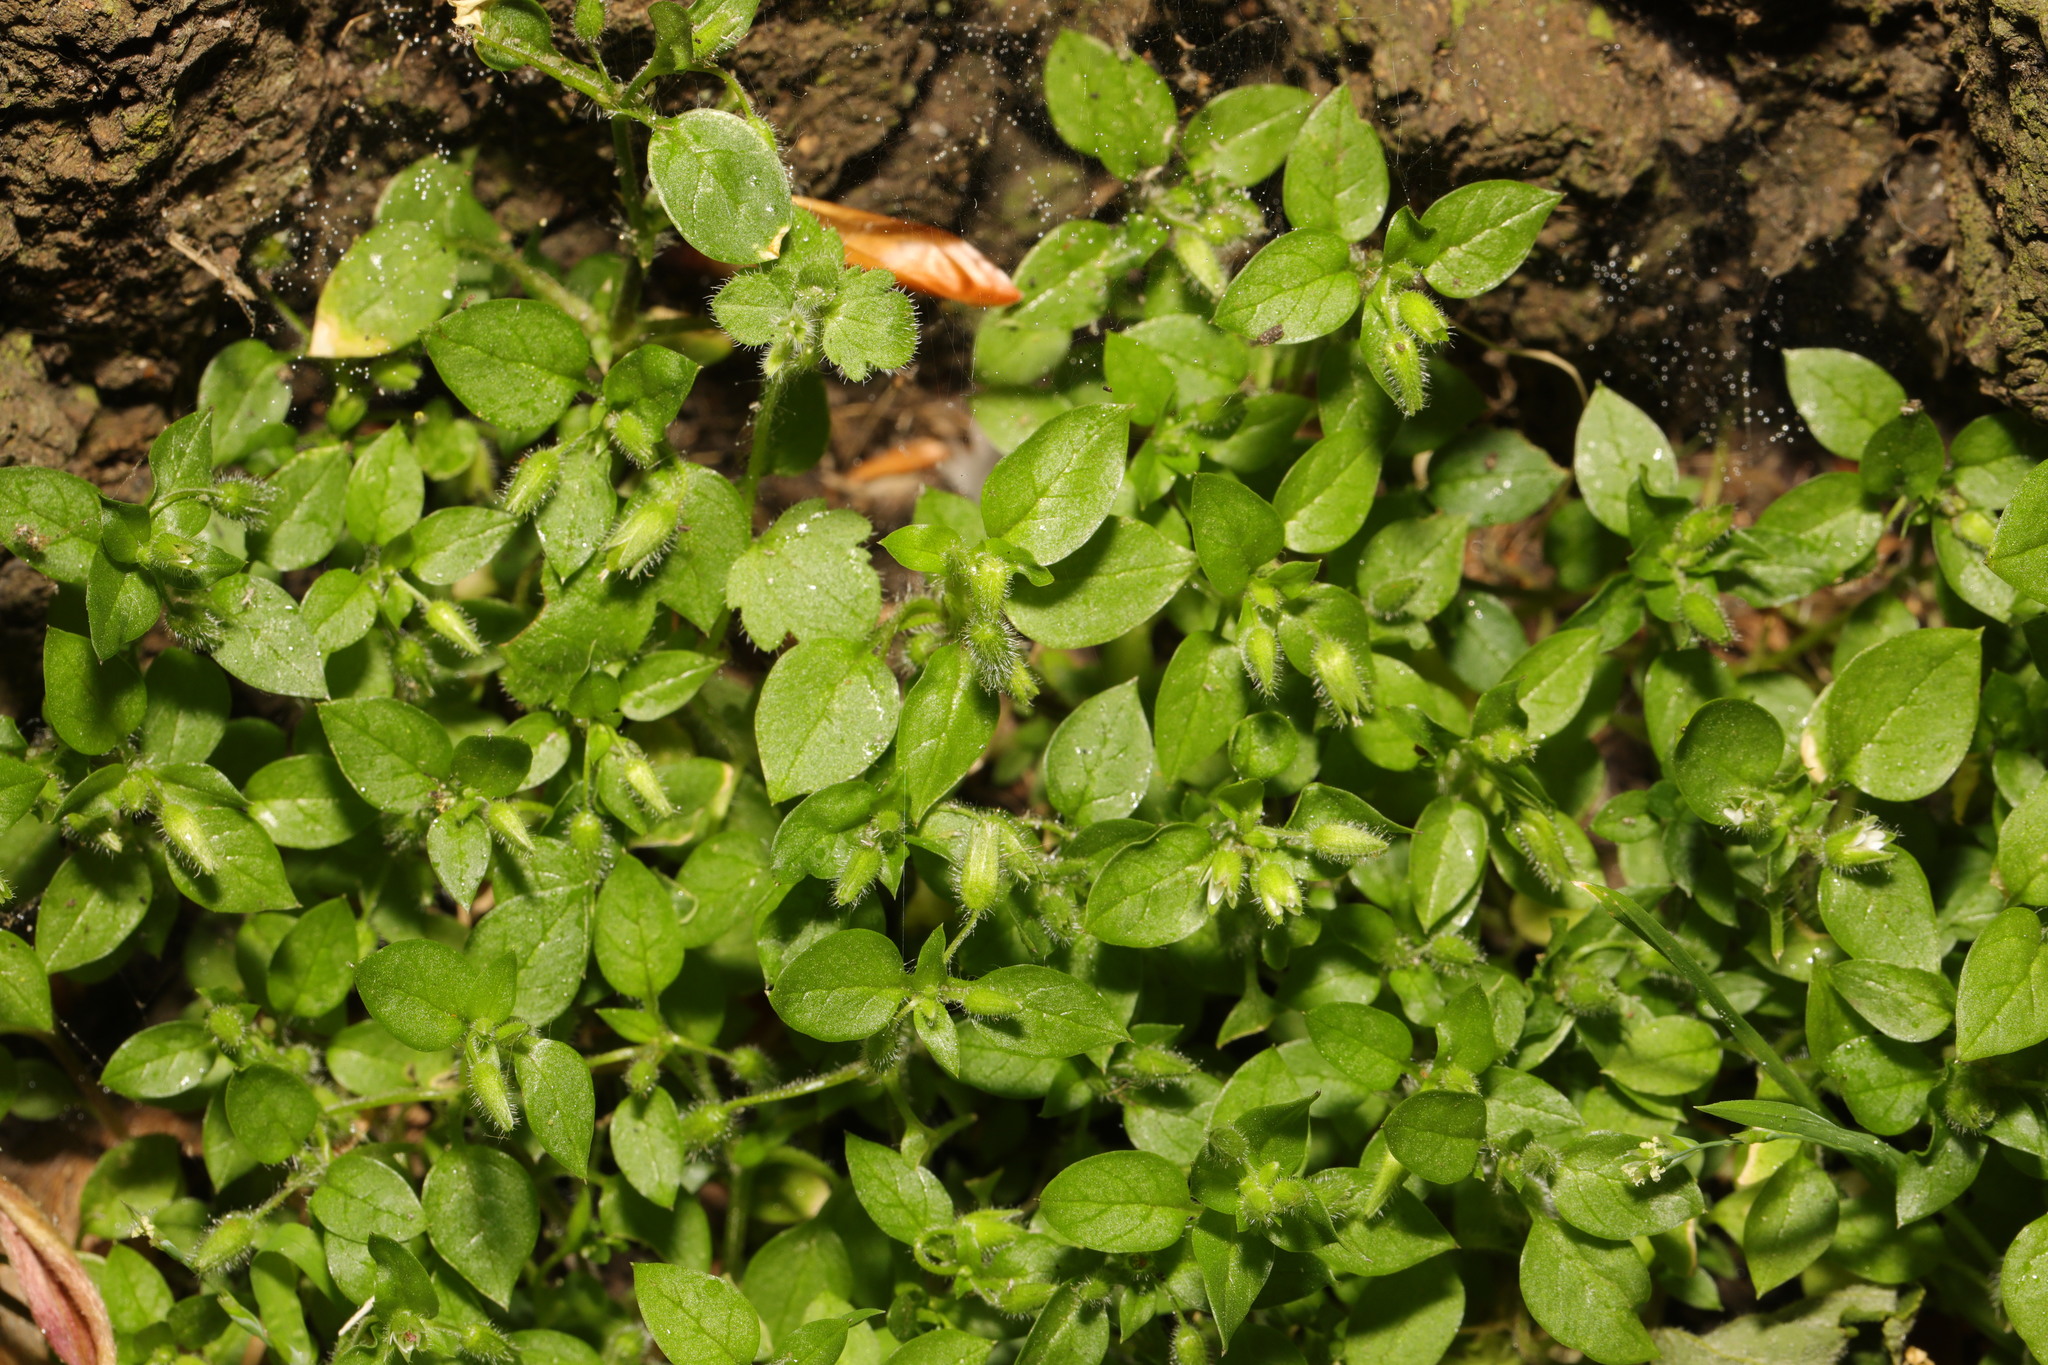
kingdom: Plantae
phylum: Tracheophyta
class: Magnoliopsida
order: Caryophyllales
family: Caryophyllaceae
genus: Stellaria
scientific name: Stellaria media
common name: Common chickweed
